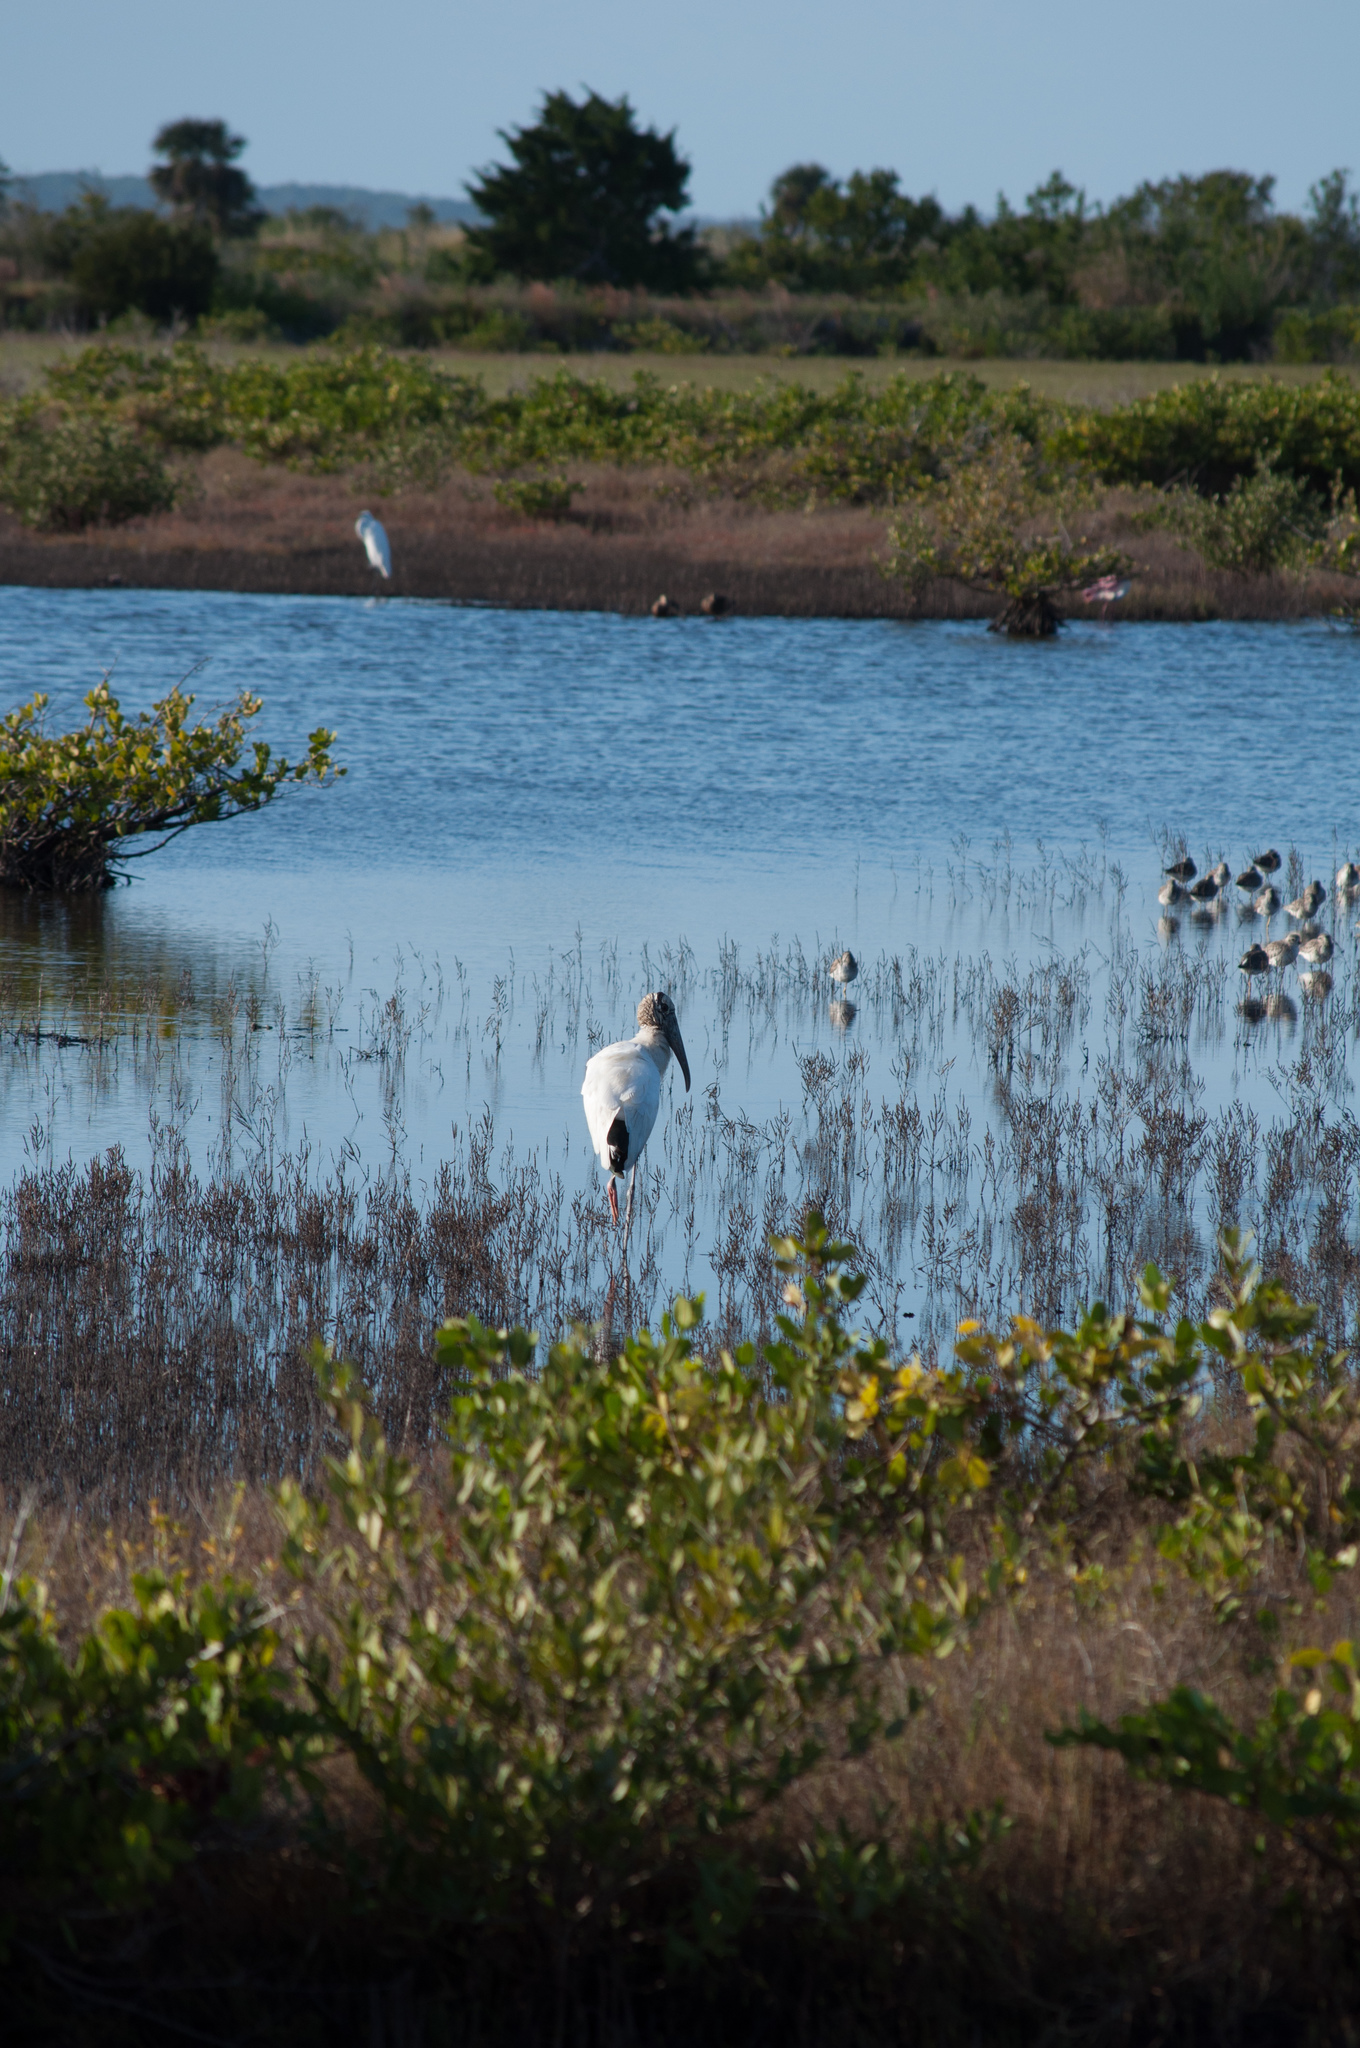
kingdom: Animalia
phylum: Chordata
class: Aves
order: Ciconiiformes
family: Ciconiidae
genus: Mycteria
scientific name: Mycteria americana
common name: Wood stork
